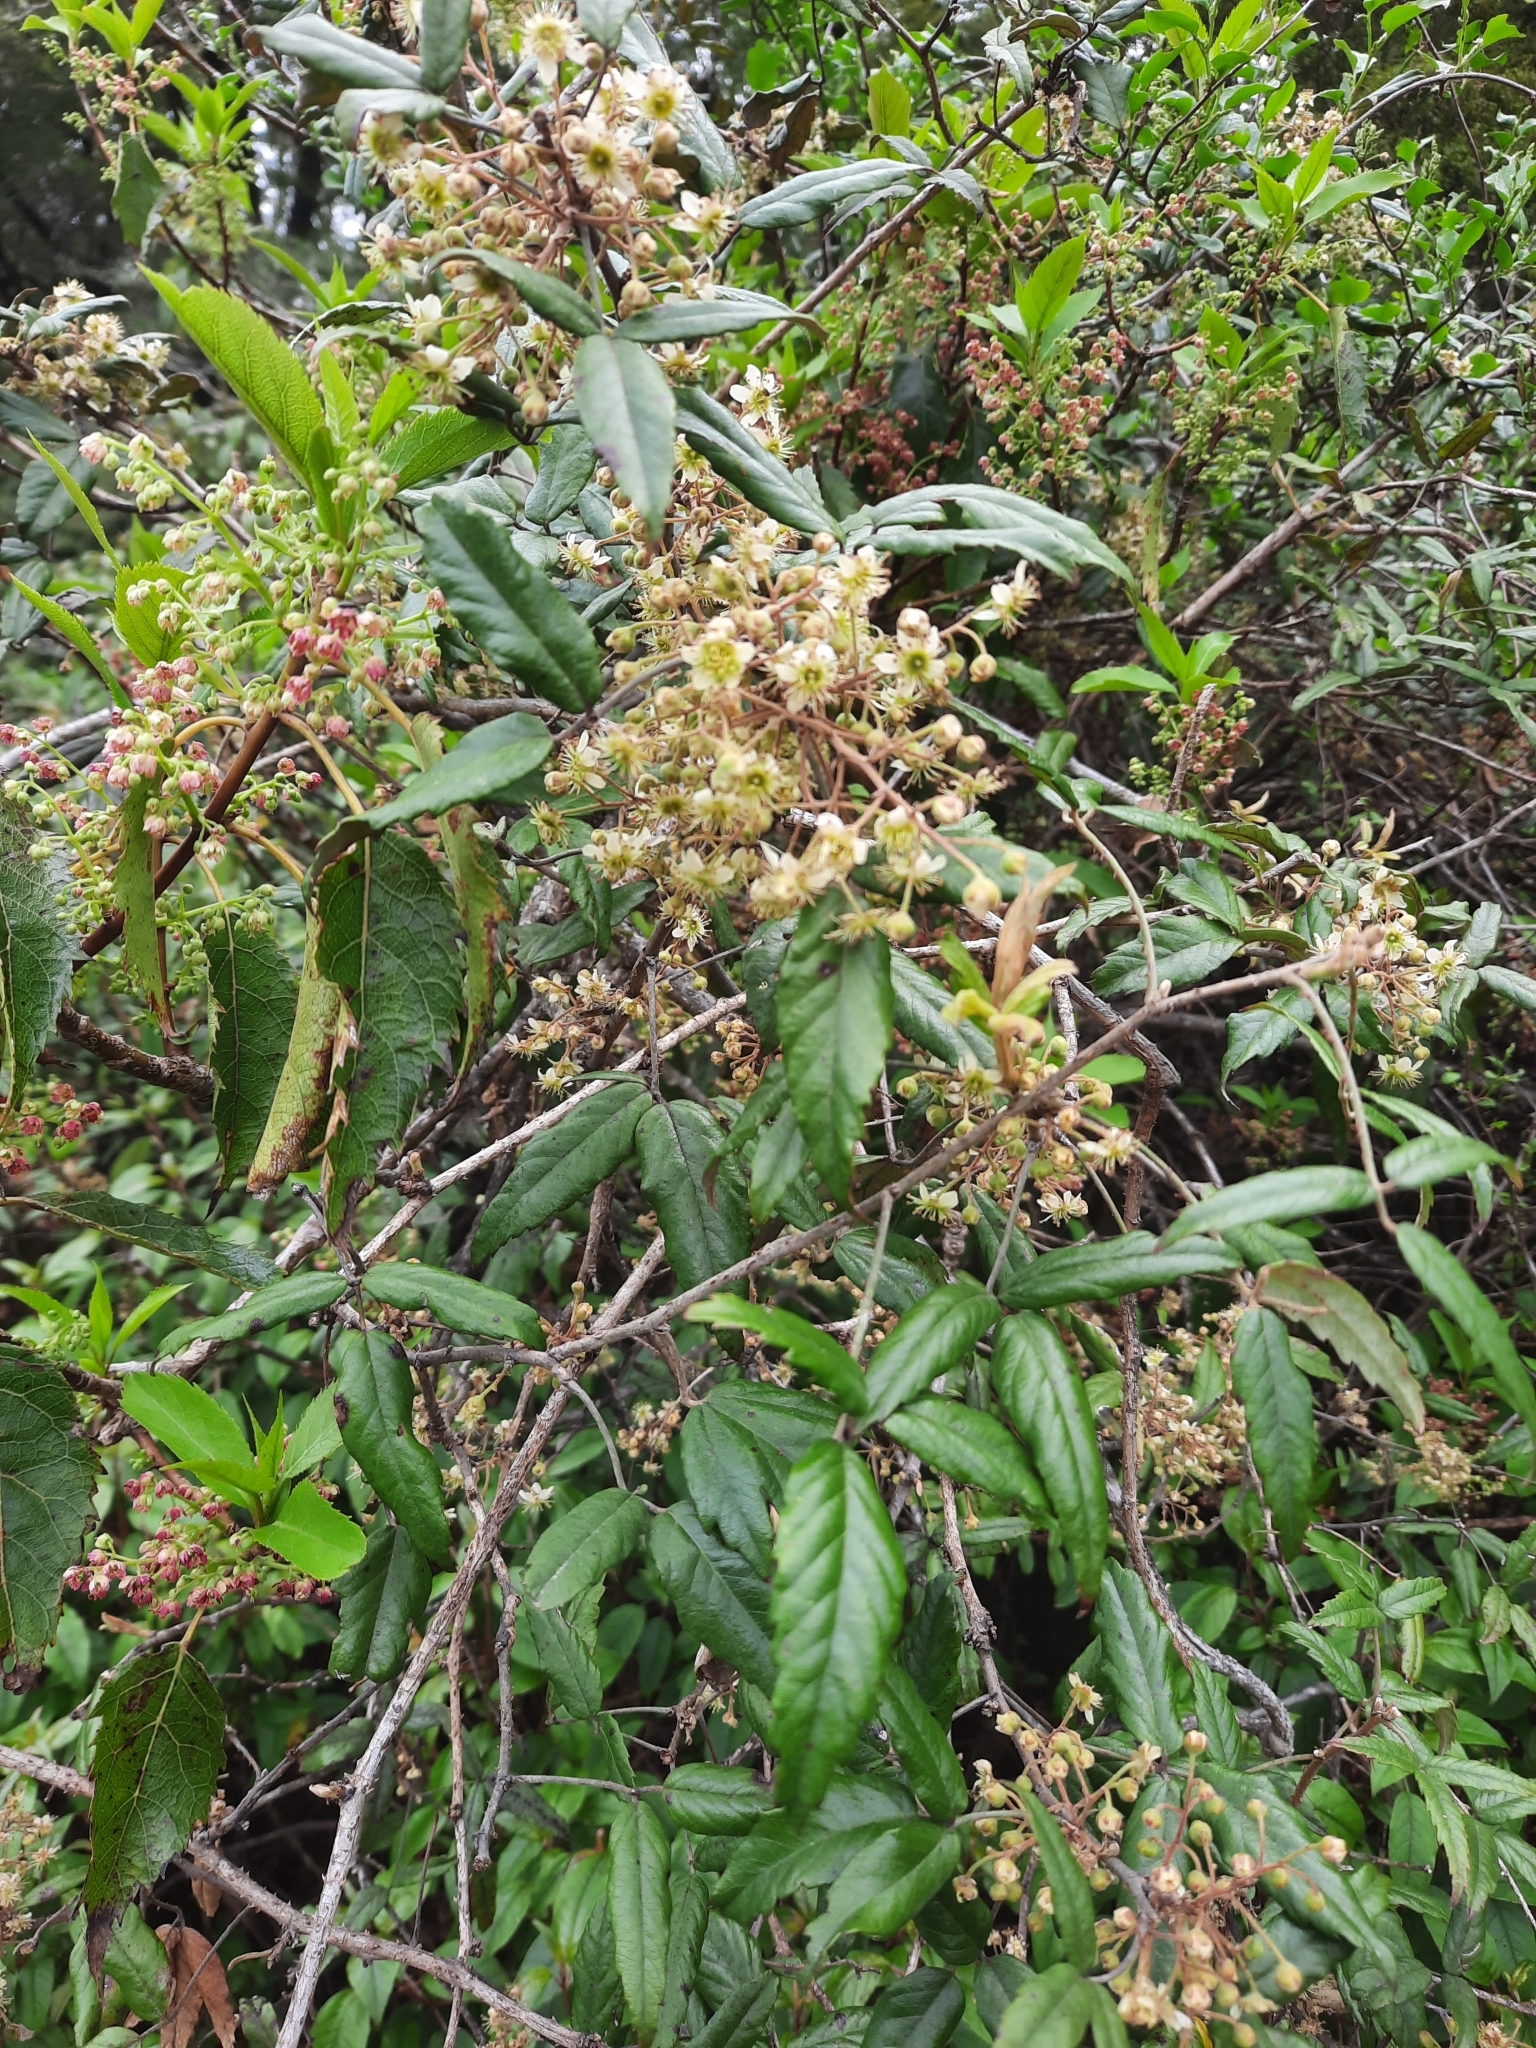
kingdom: Plantae
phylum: Tracheophyta
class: Magnoliopsida
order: Rosales
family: Rosaceae
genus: Rubus
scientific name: Rubus schmidelioides
